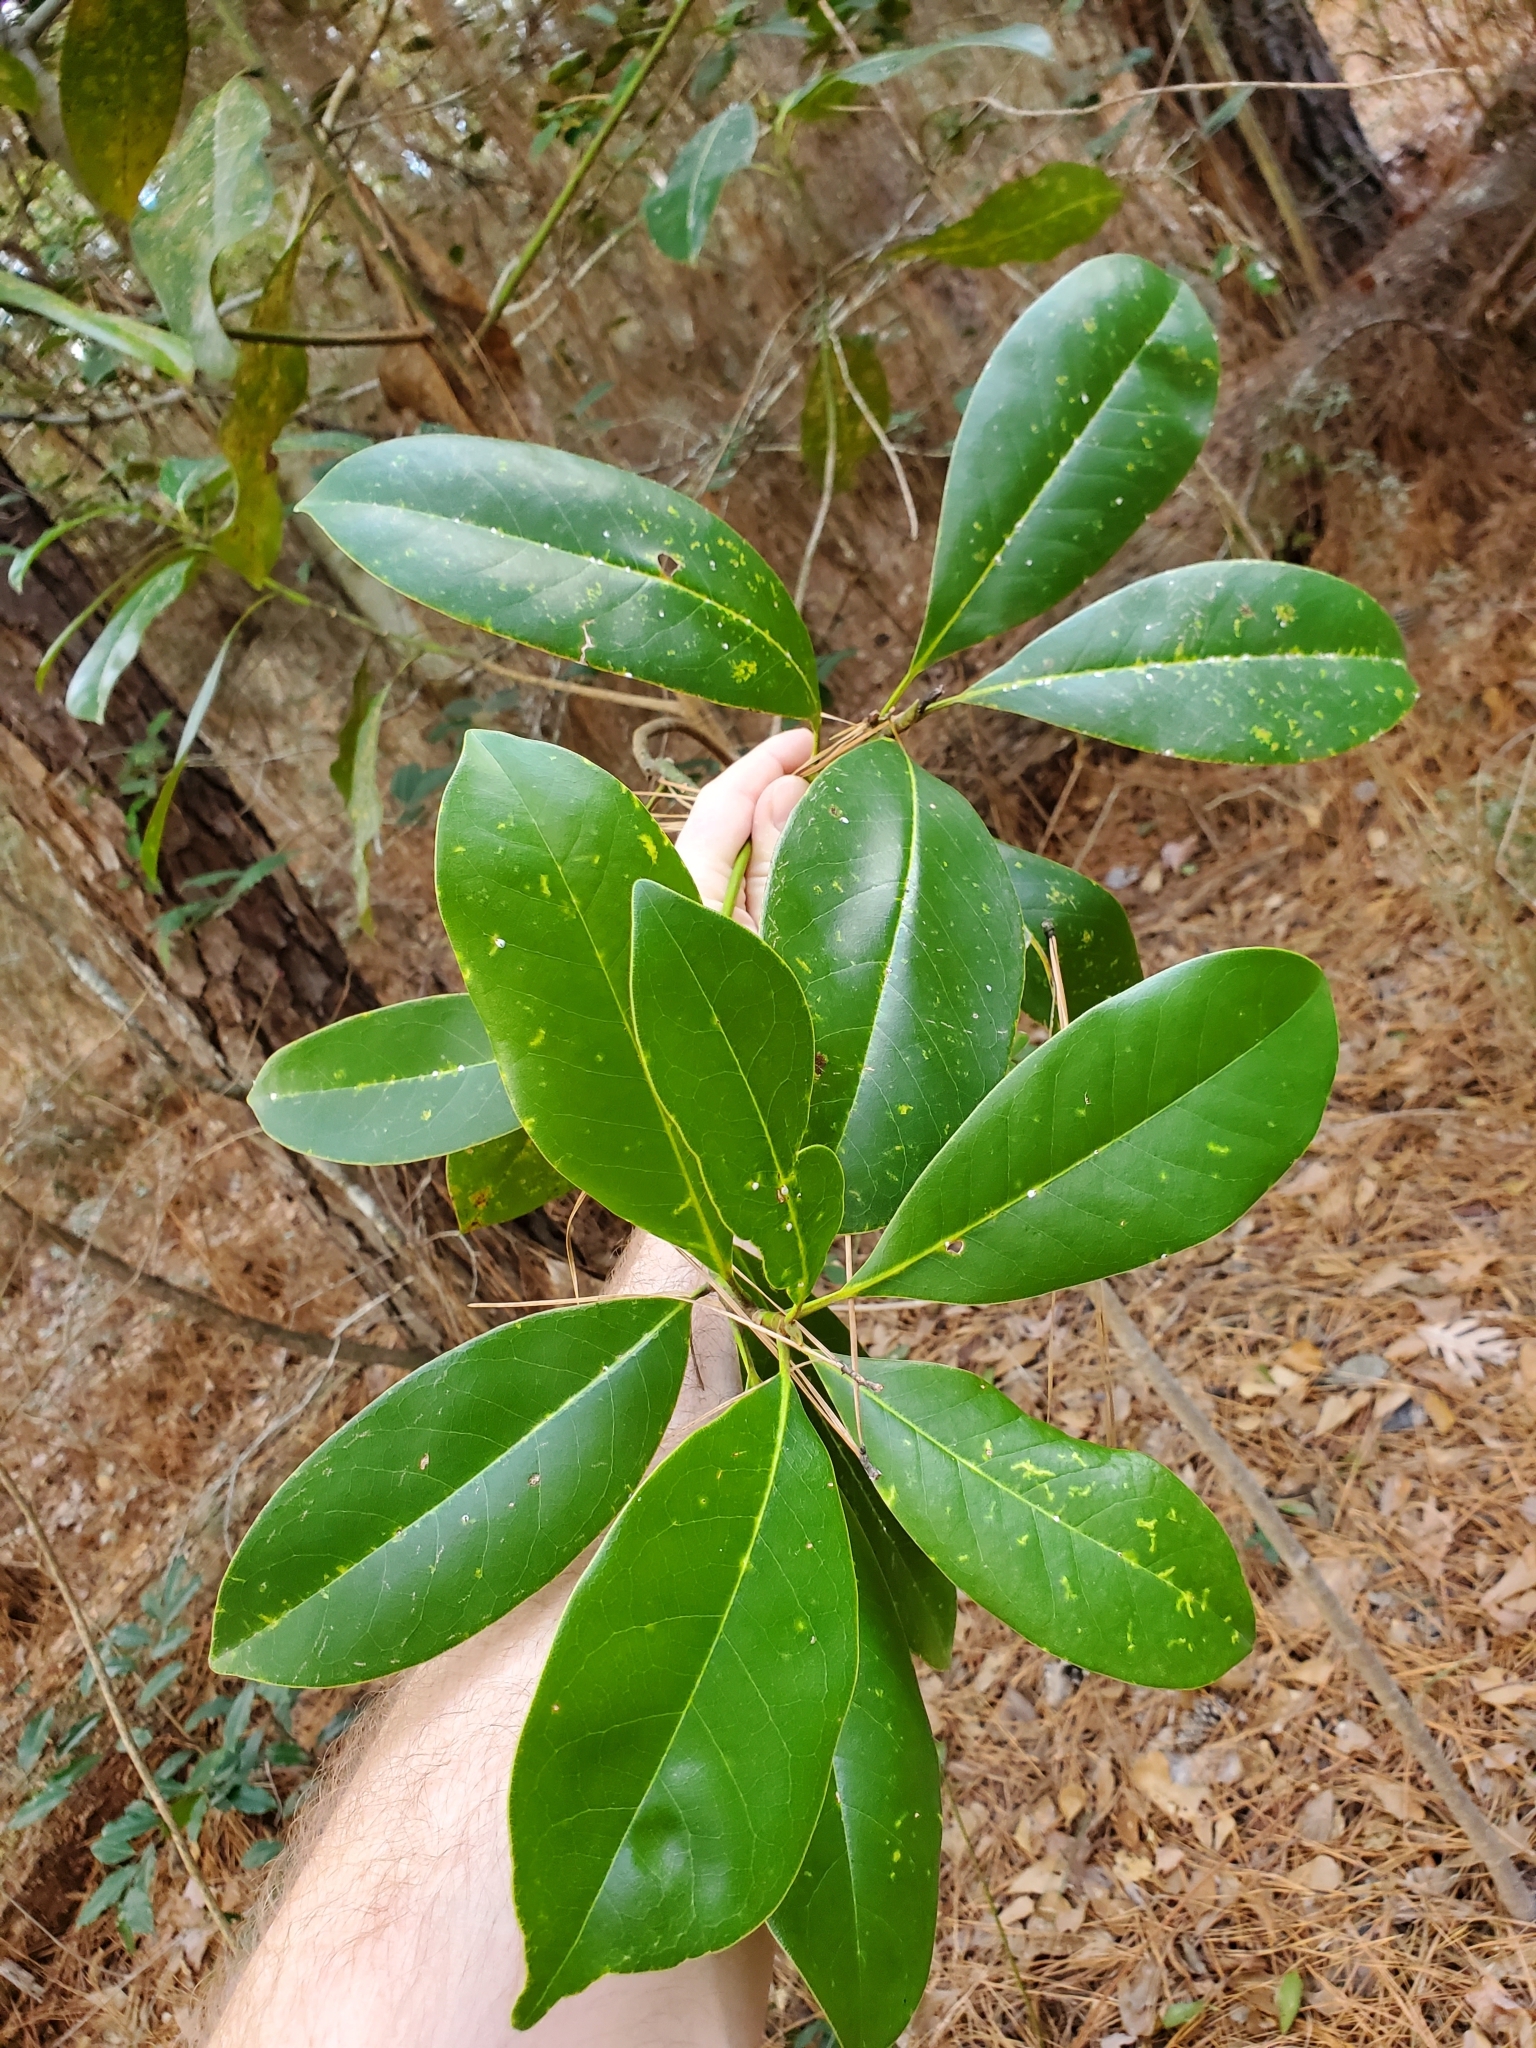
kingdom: Plantae
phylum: Tracheophyta
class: Magnoliopsida
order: Magnoliales
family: Magnoliaceae
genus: Magnolia
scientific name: Magnolia grandiflora
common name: Southern magnolia
